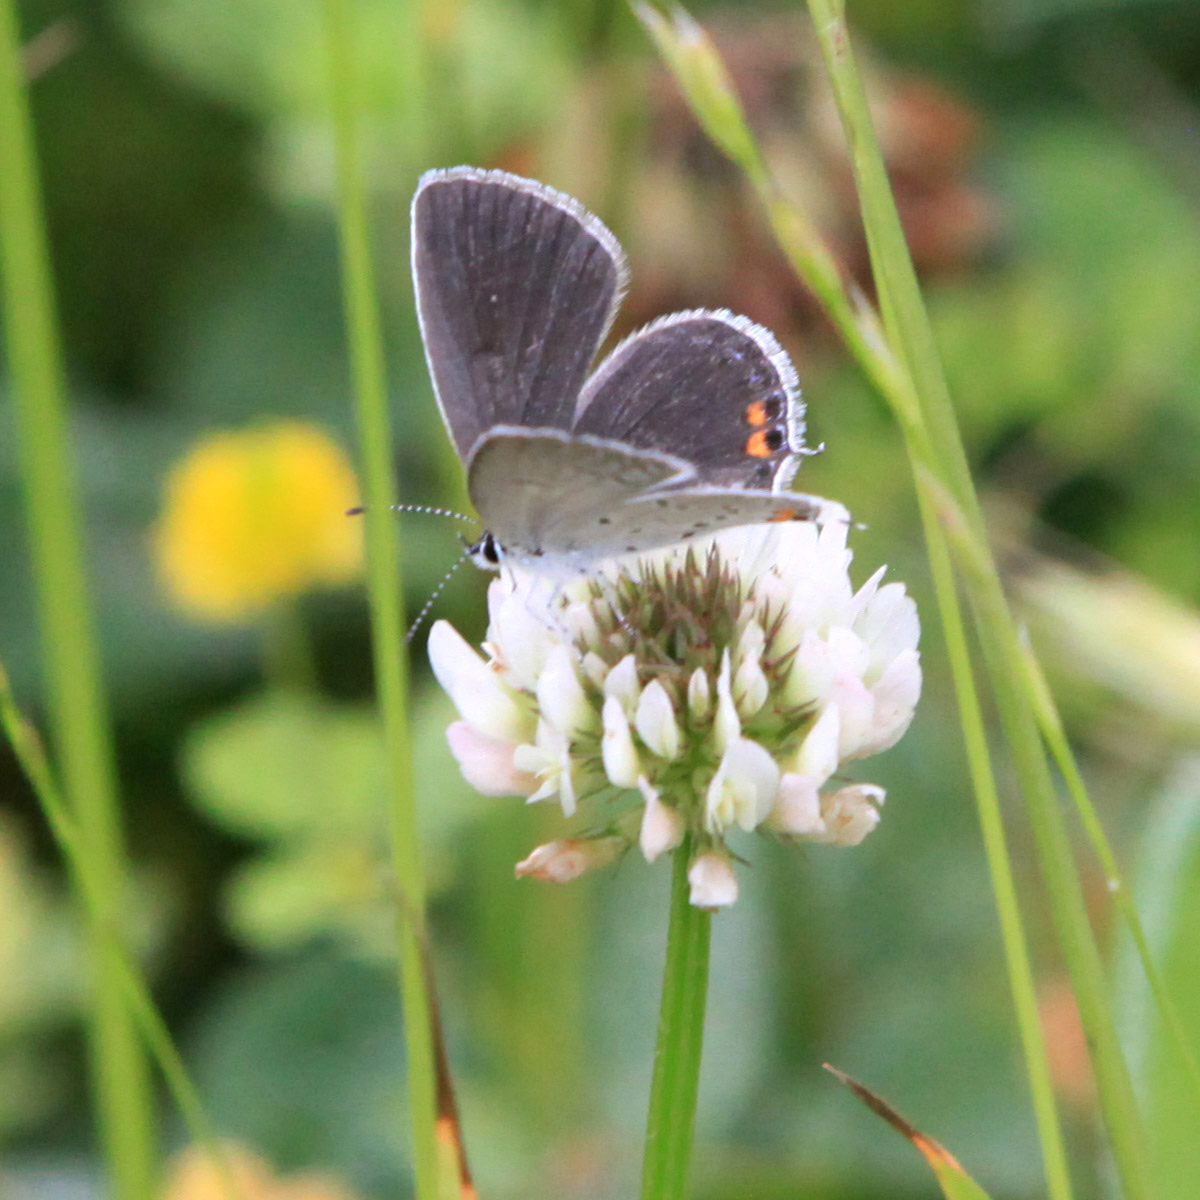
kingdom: Animalia
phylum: Arthropoda
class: Insecta
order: Lepidoptera
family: Lycaenidae
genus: Elkalyce
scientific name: Elkalyce comyntas
